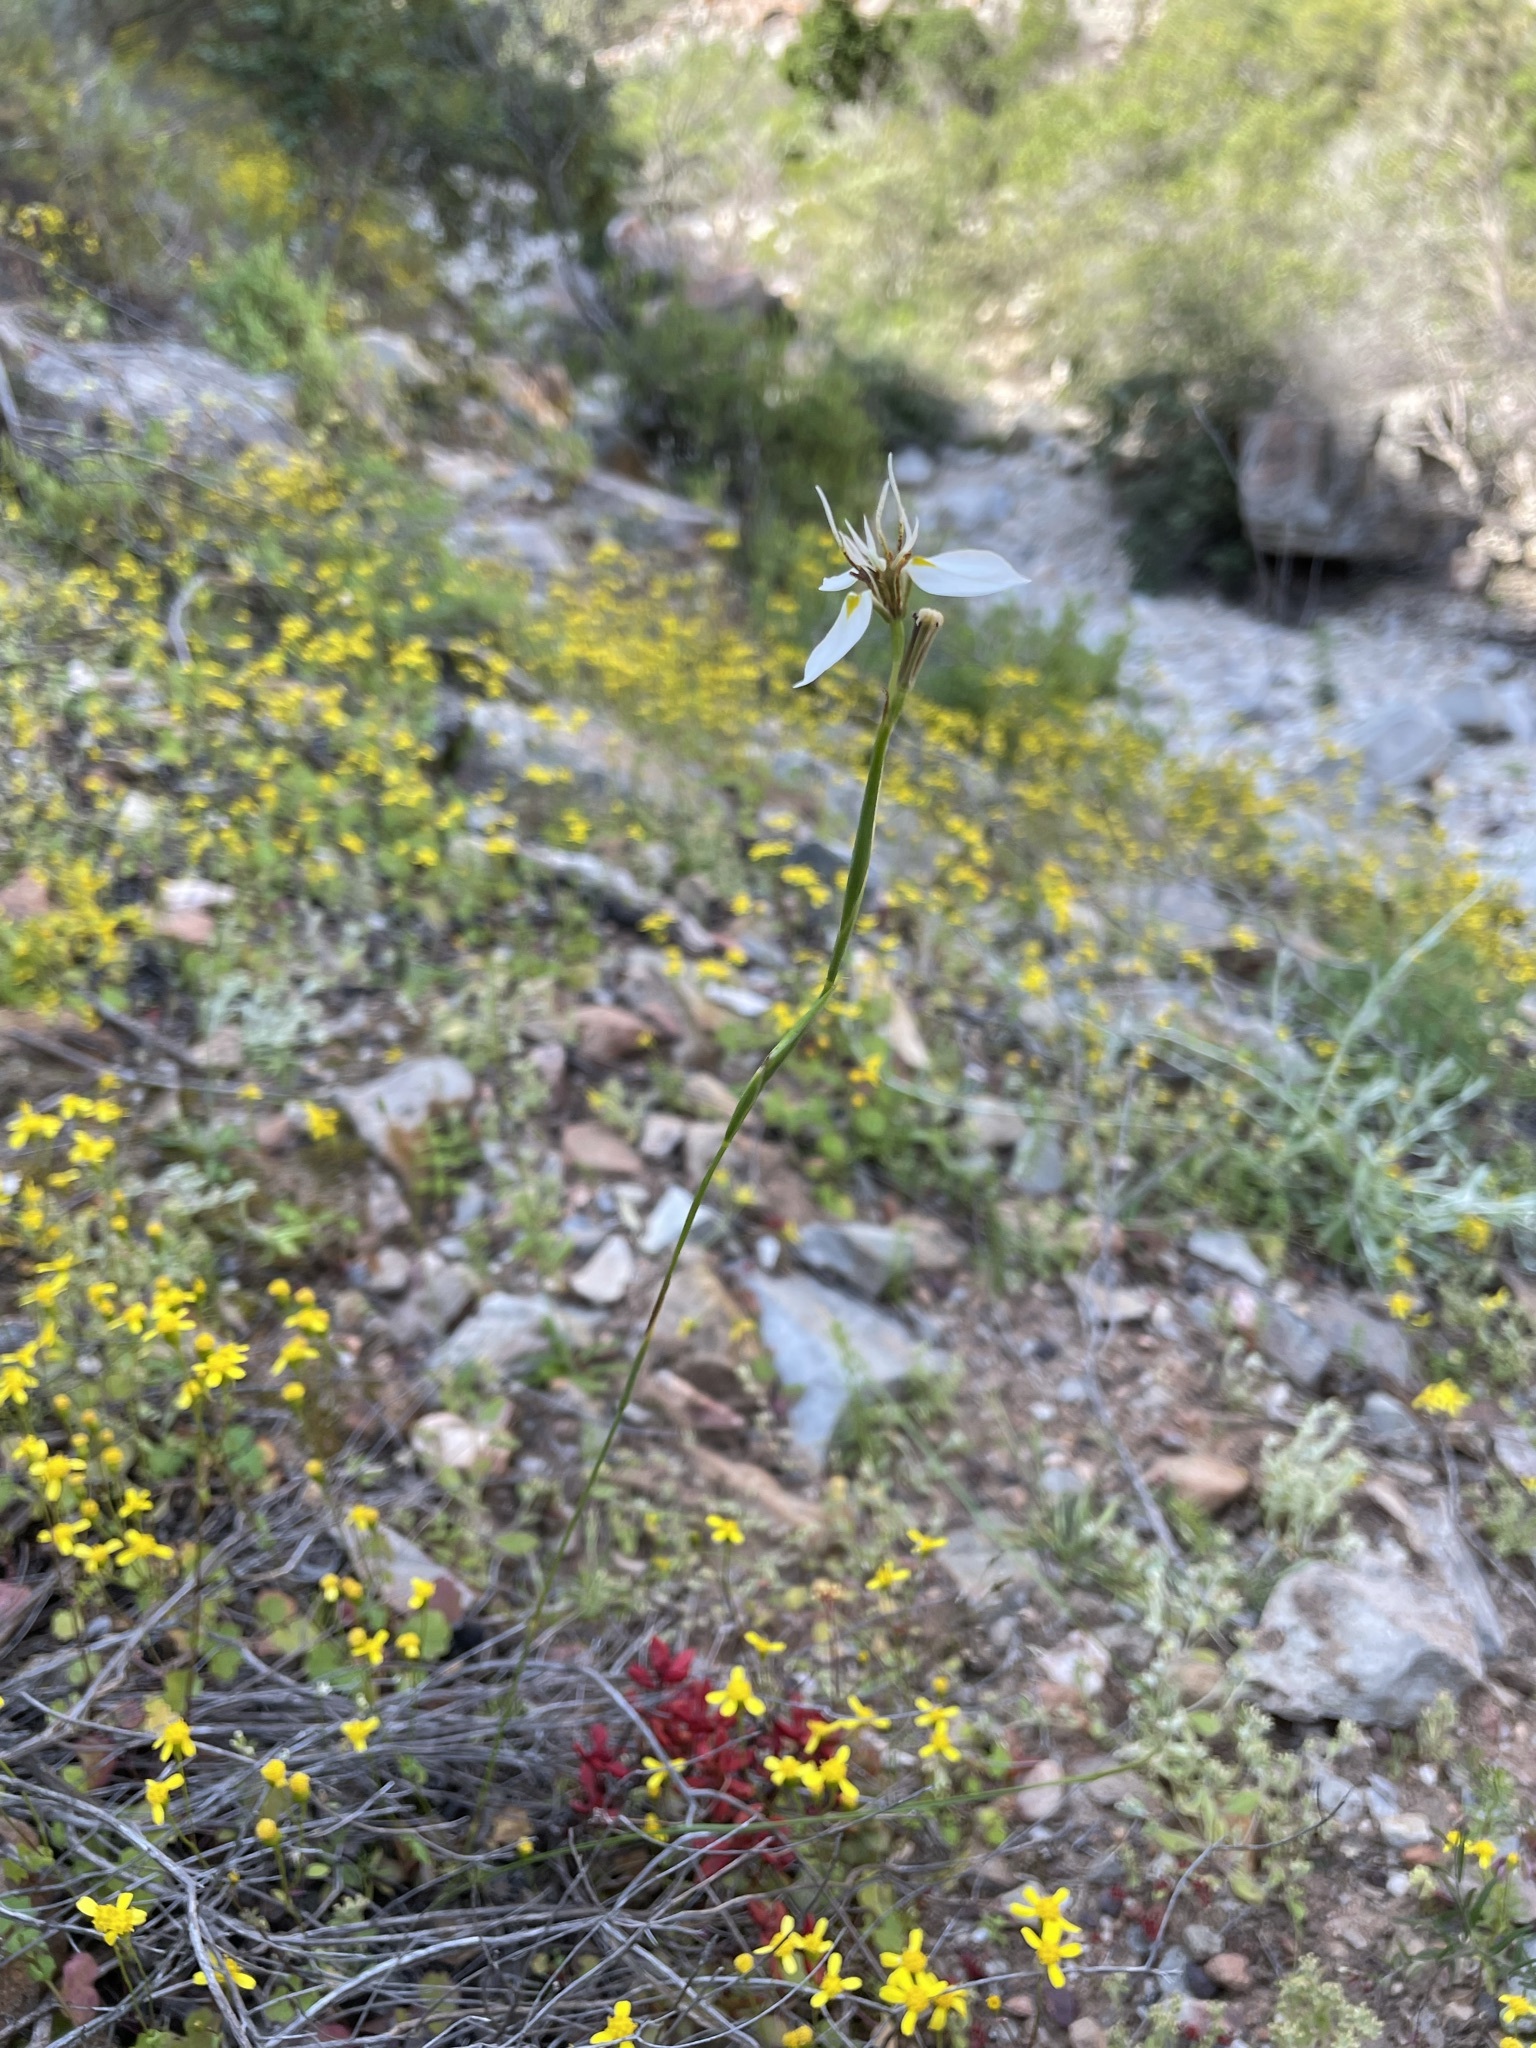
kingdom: Plantae
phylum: Tracheophyta
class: Liliopsida
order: Asparagales
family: Iridaceae
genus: Moraea
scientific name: Moraea lilacina
